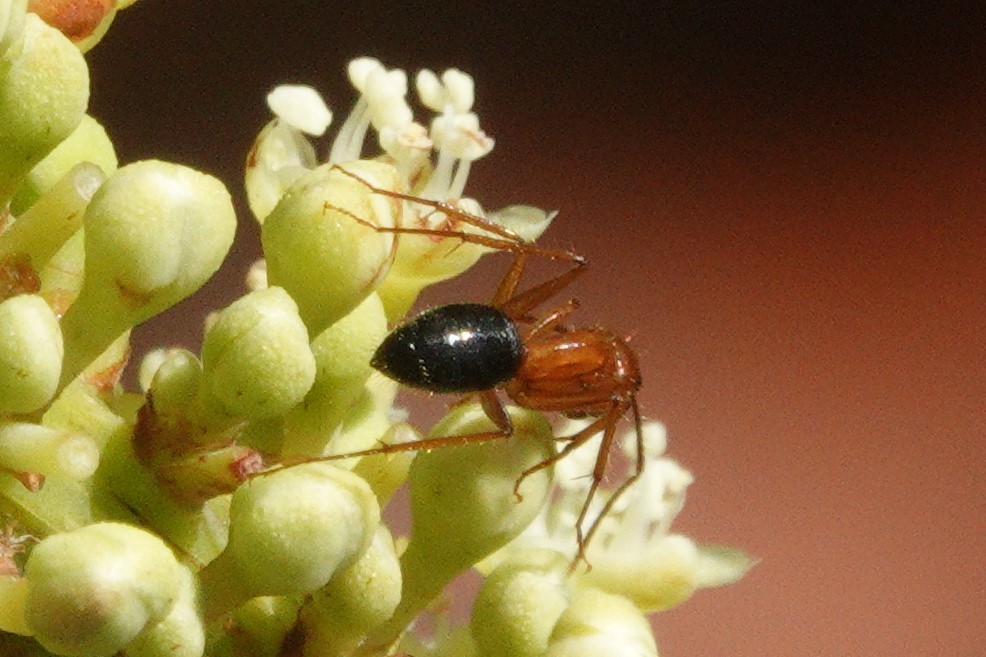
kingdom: Animalia
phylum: Arthropoda
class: Insecta
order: Hymenoptera
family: Formicidae
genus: Camponotus
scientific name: Camponotus floridanus
